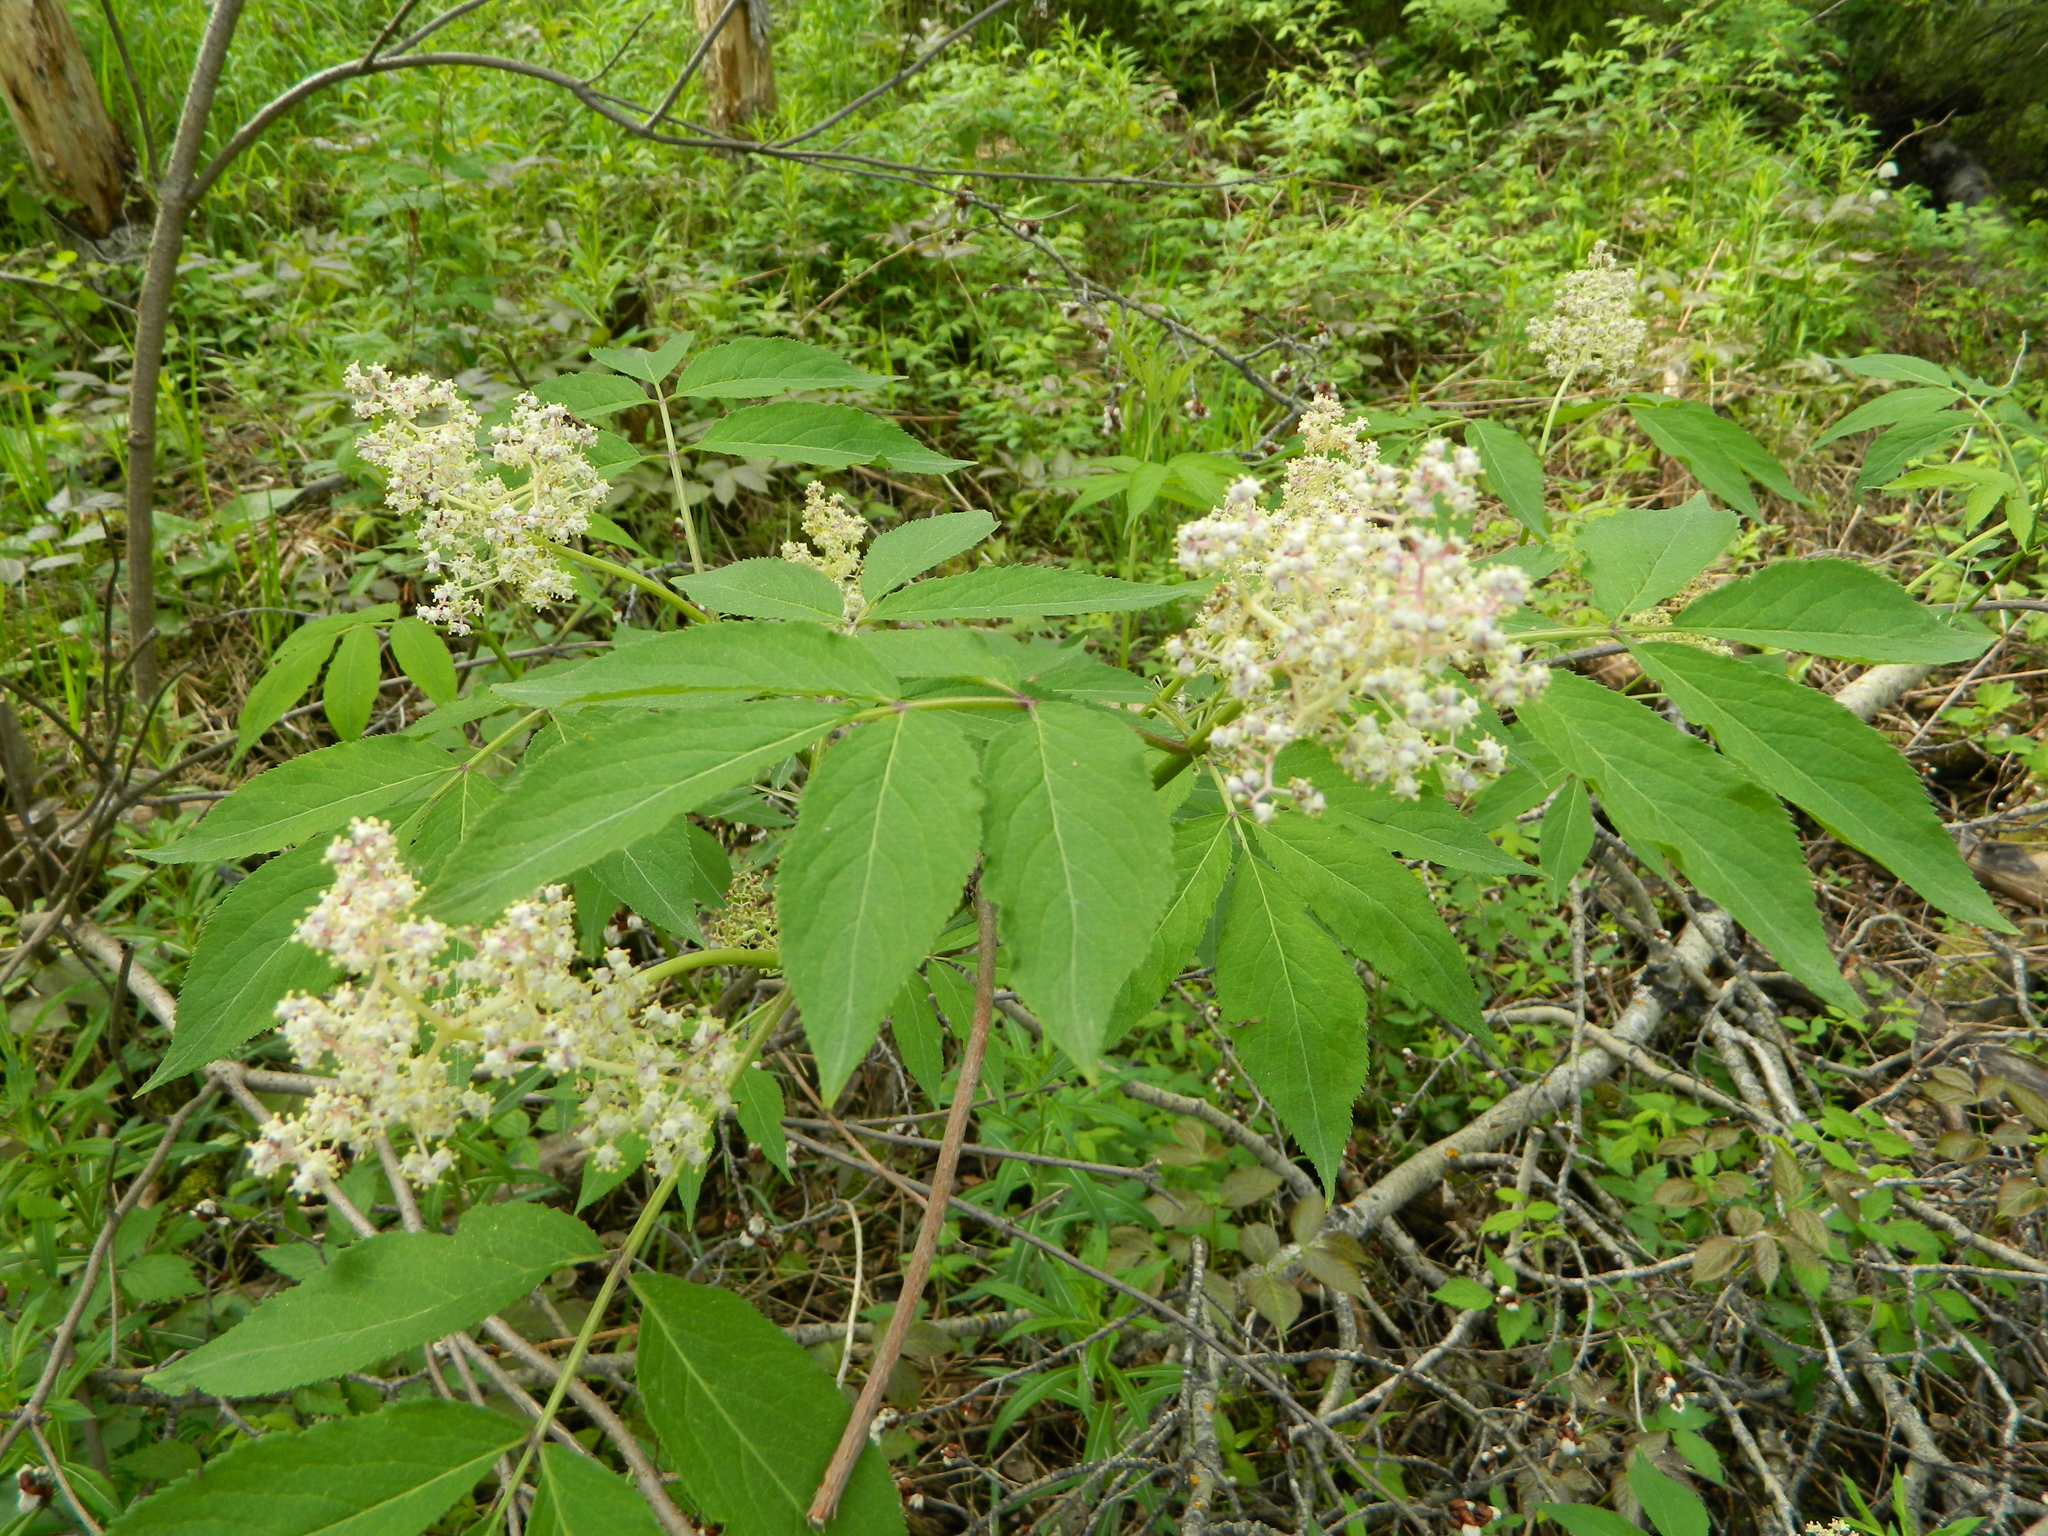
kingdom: Plantae
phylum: Tracheophyta
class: Magnoliopsida
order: Dipsacales
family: Viburnaceae
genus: Sambucus
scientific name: Sambucus racemosa
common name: Red-berried elder
